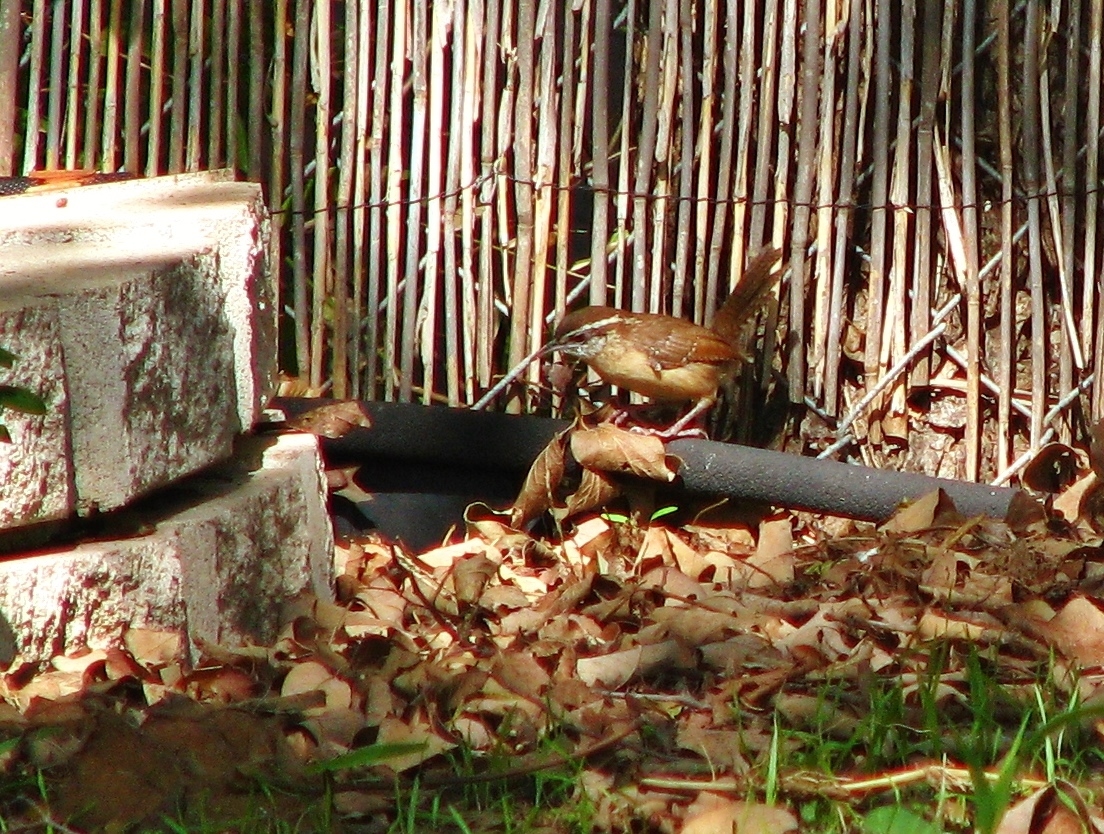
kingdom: Animalia
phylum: Chordata
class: Aves
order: Passeriformes
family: Troglodytidae
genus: Thryothorus
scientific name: Thryothorus ludovicianus
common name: Carolina wren
